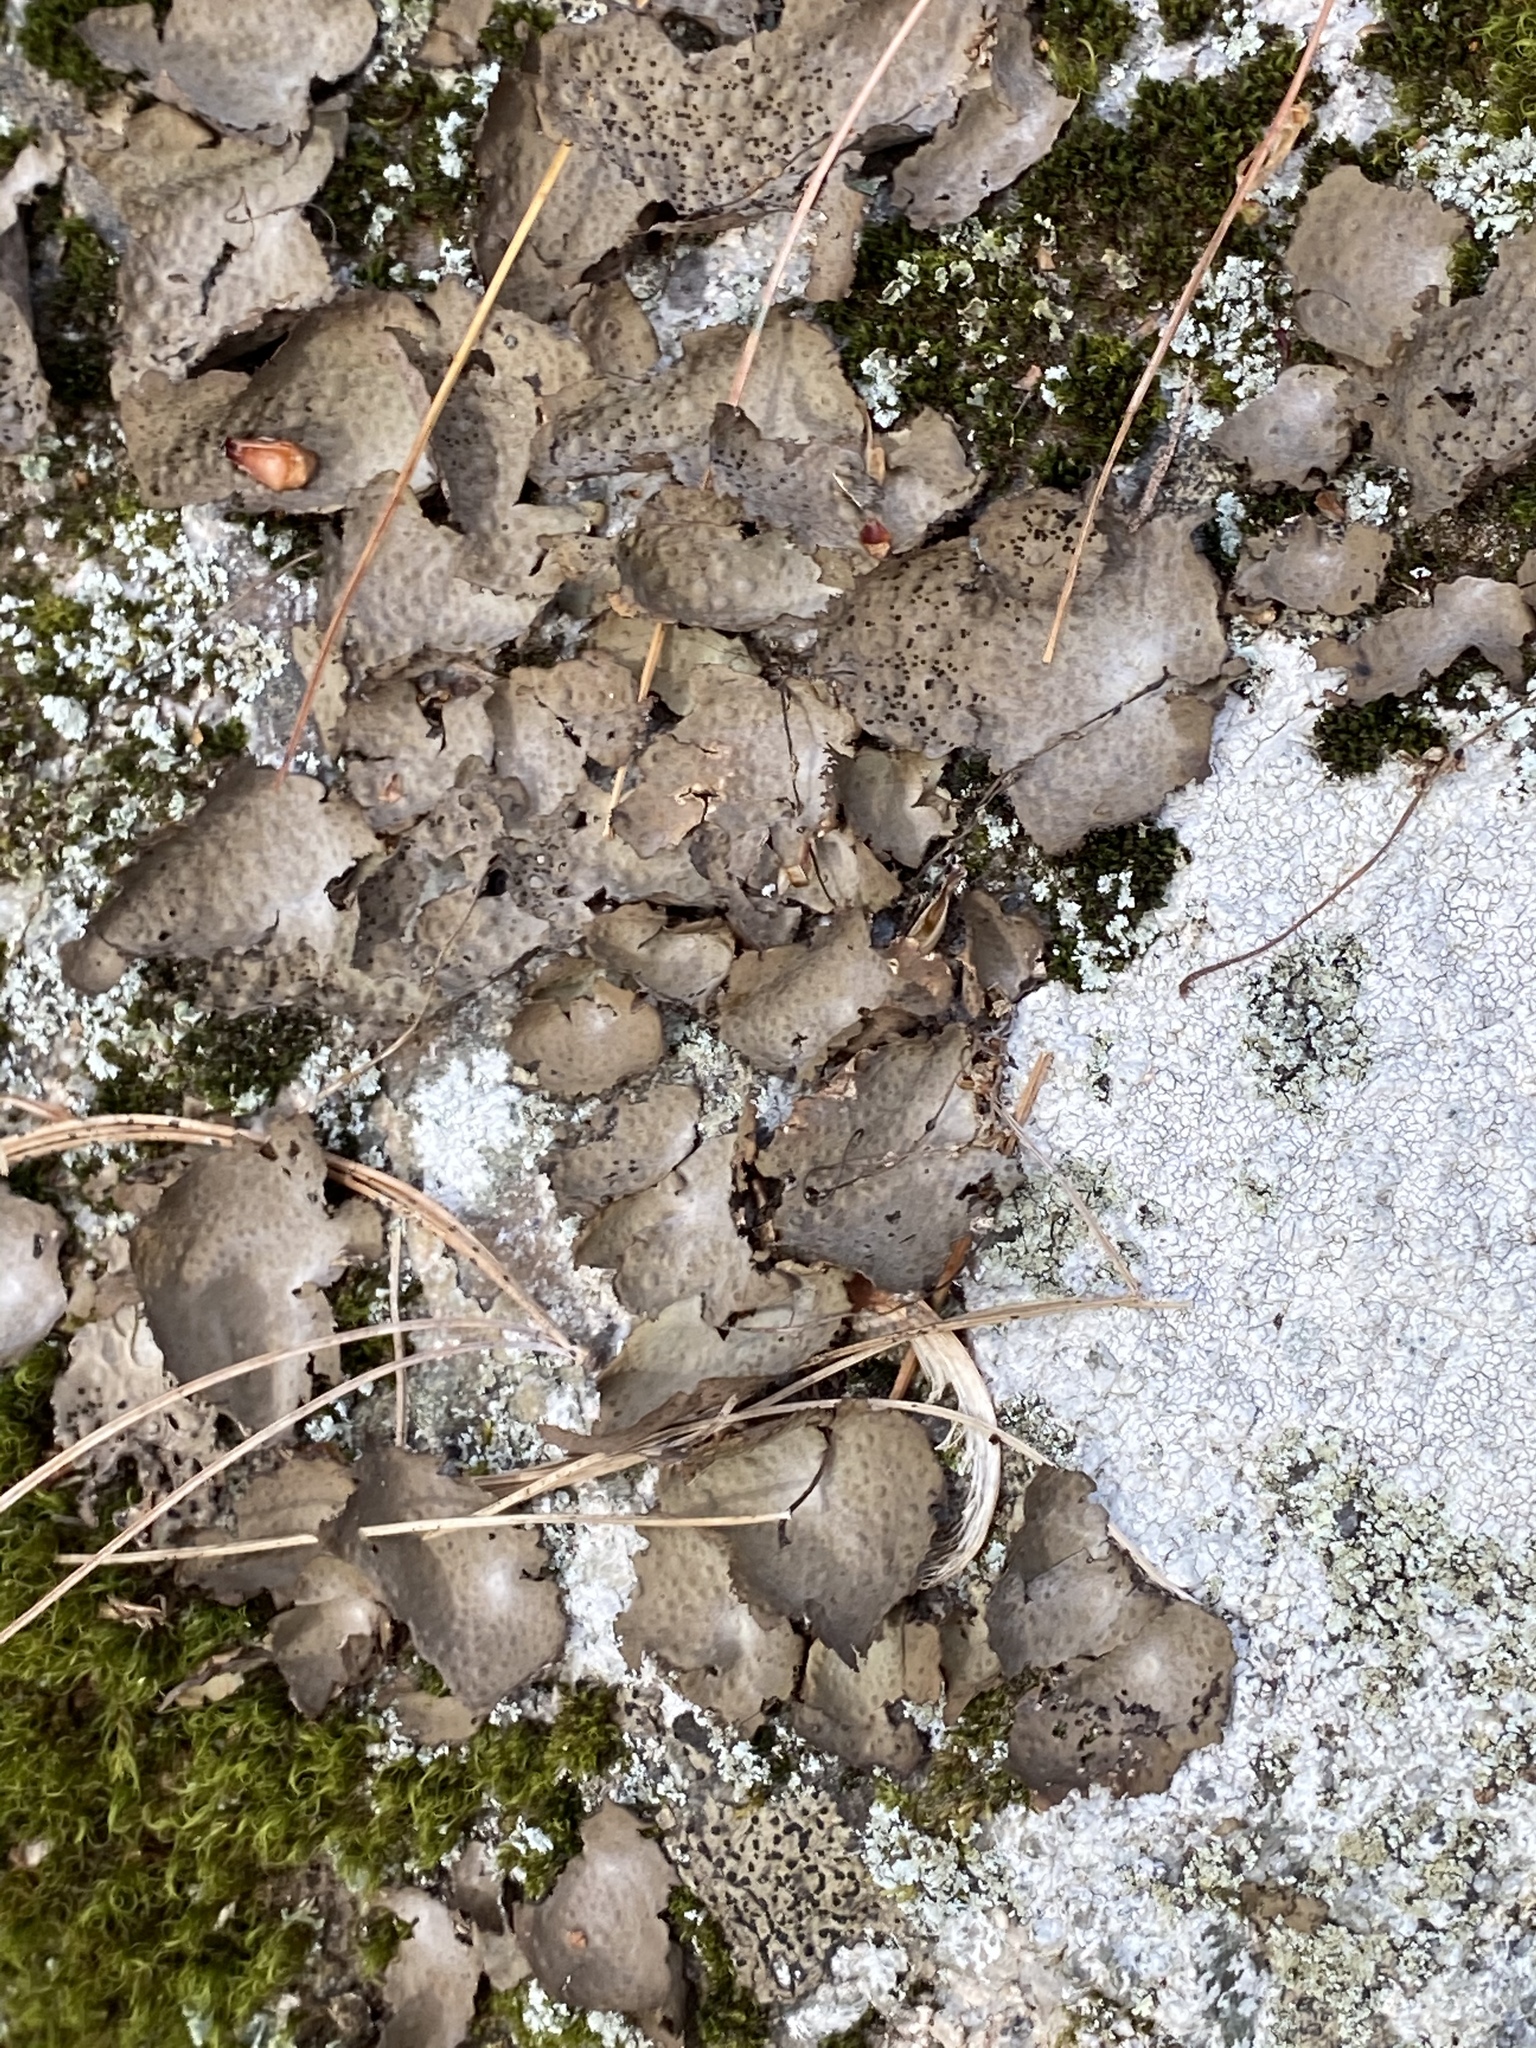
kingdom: Fungi
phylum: Ascomycota
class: Lecanoromycetes
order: Umbilicariales
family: Umbilicariaceae
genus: Lasallia
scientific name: Lasallia papulosa
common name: Common toadskin lichen
